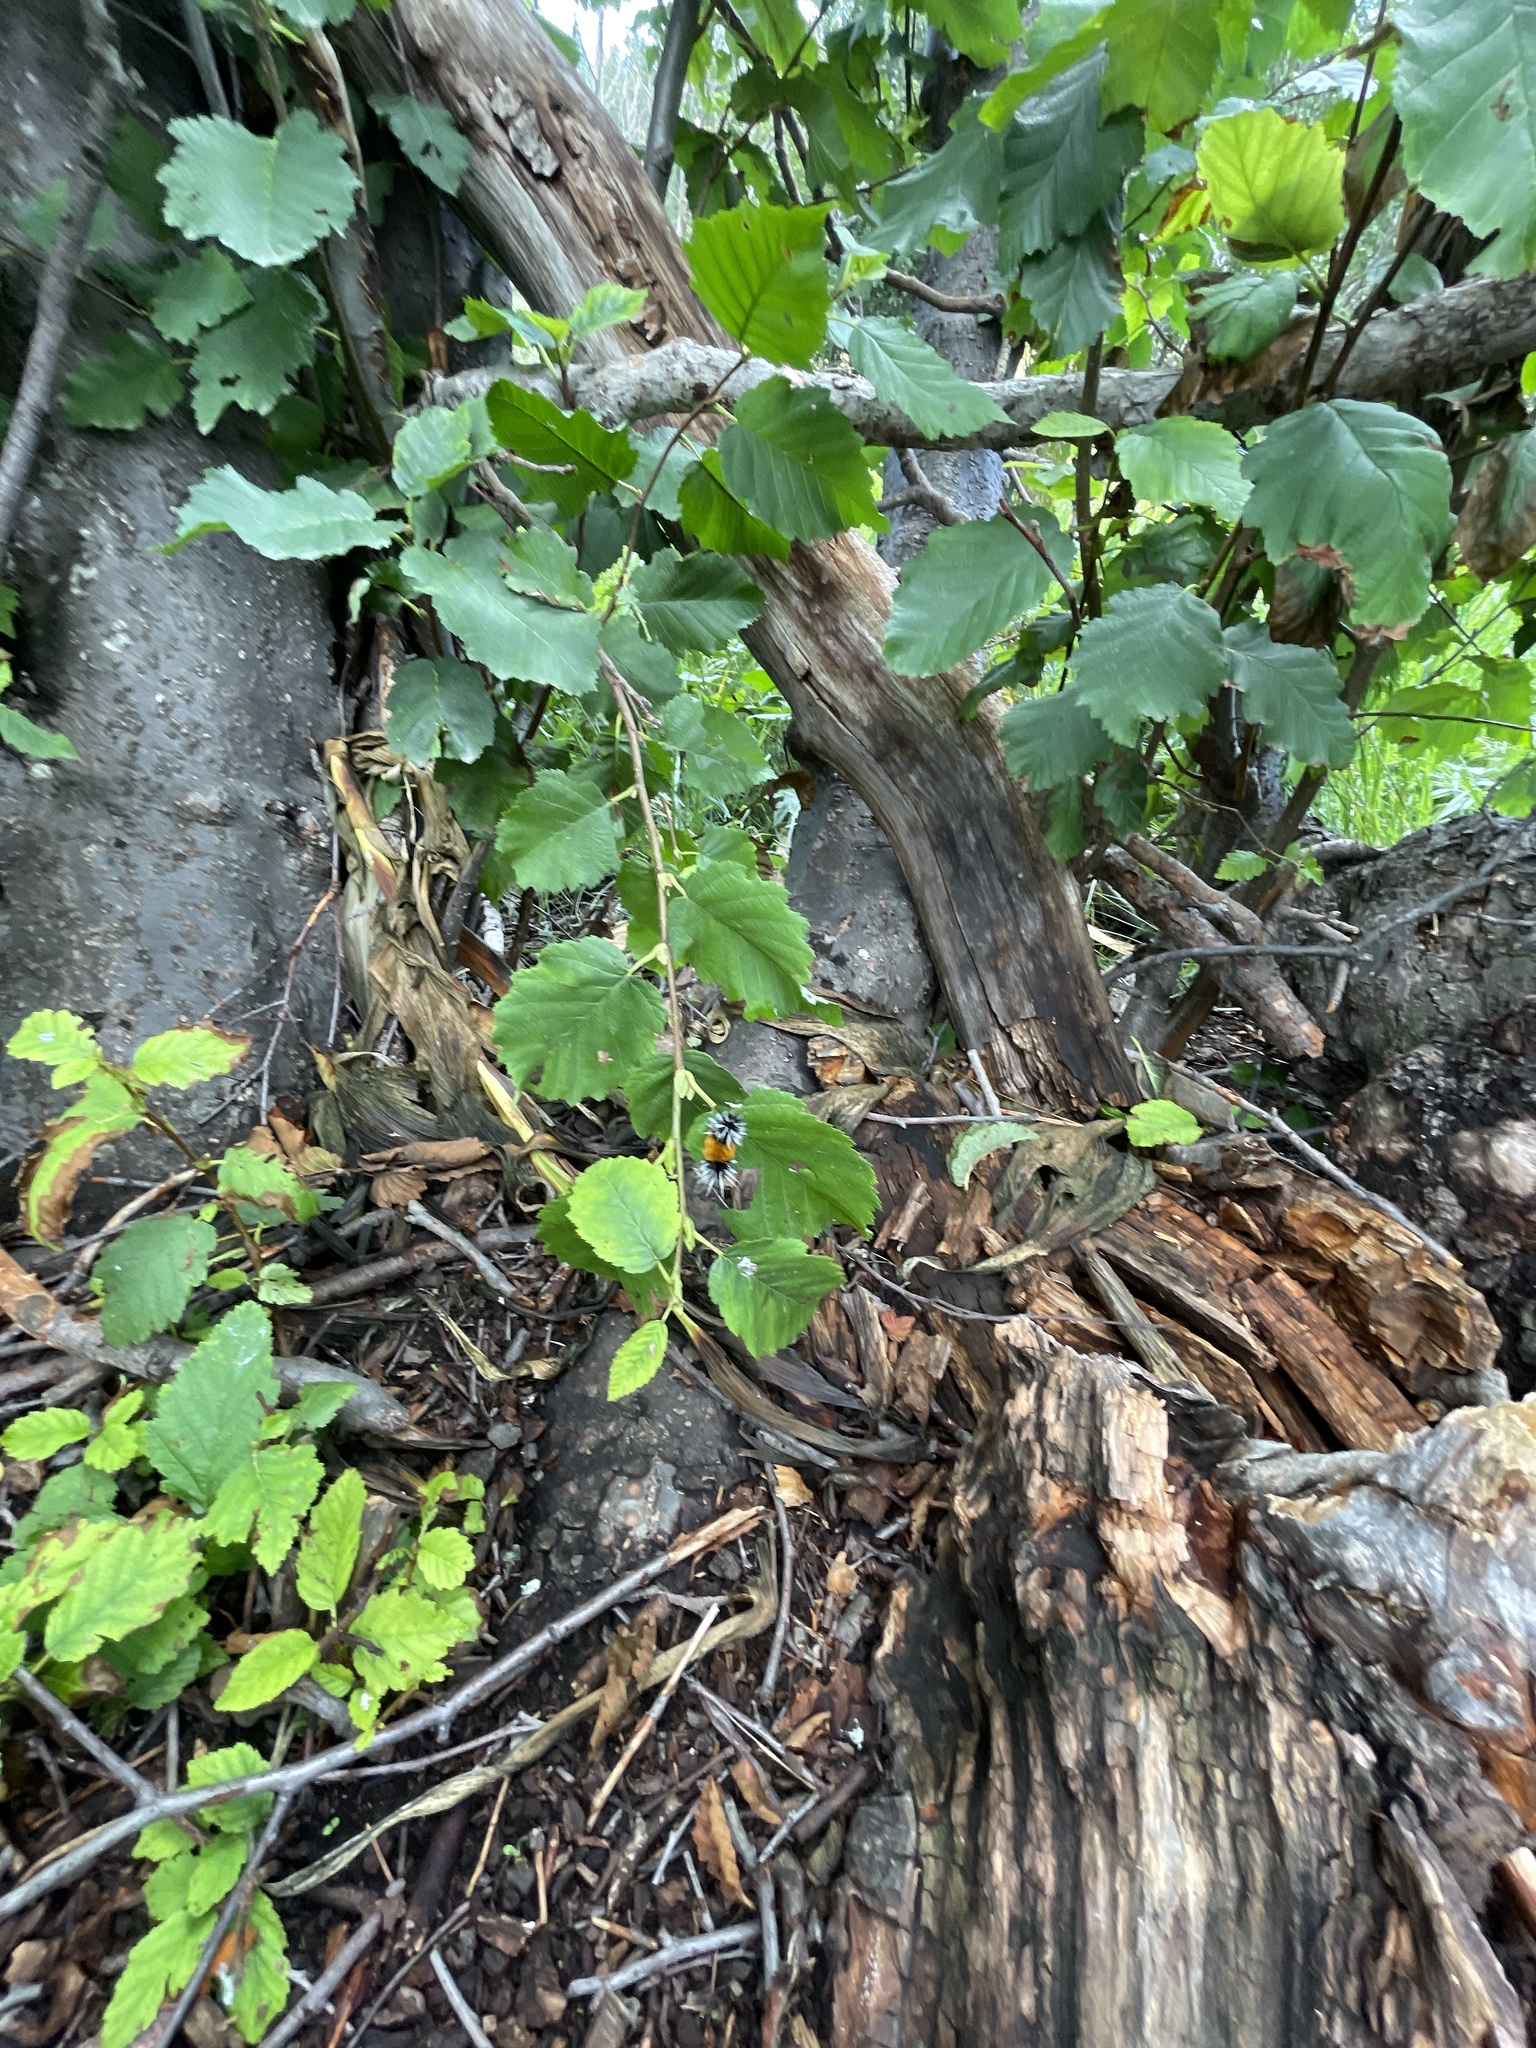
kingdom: Animalia
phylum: Arthropoda
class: Insecta
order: Lepidoptera
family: Erebidae
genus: Lophocampa
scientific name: Lophocampa maculata
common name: Spotted tussock moth
